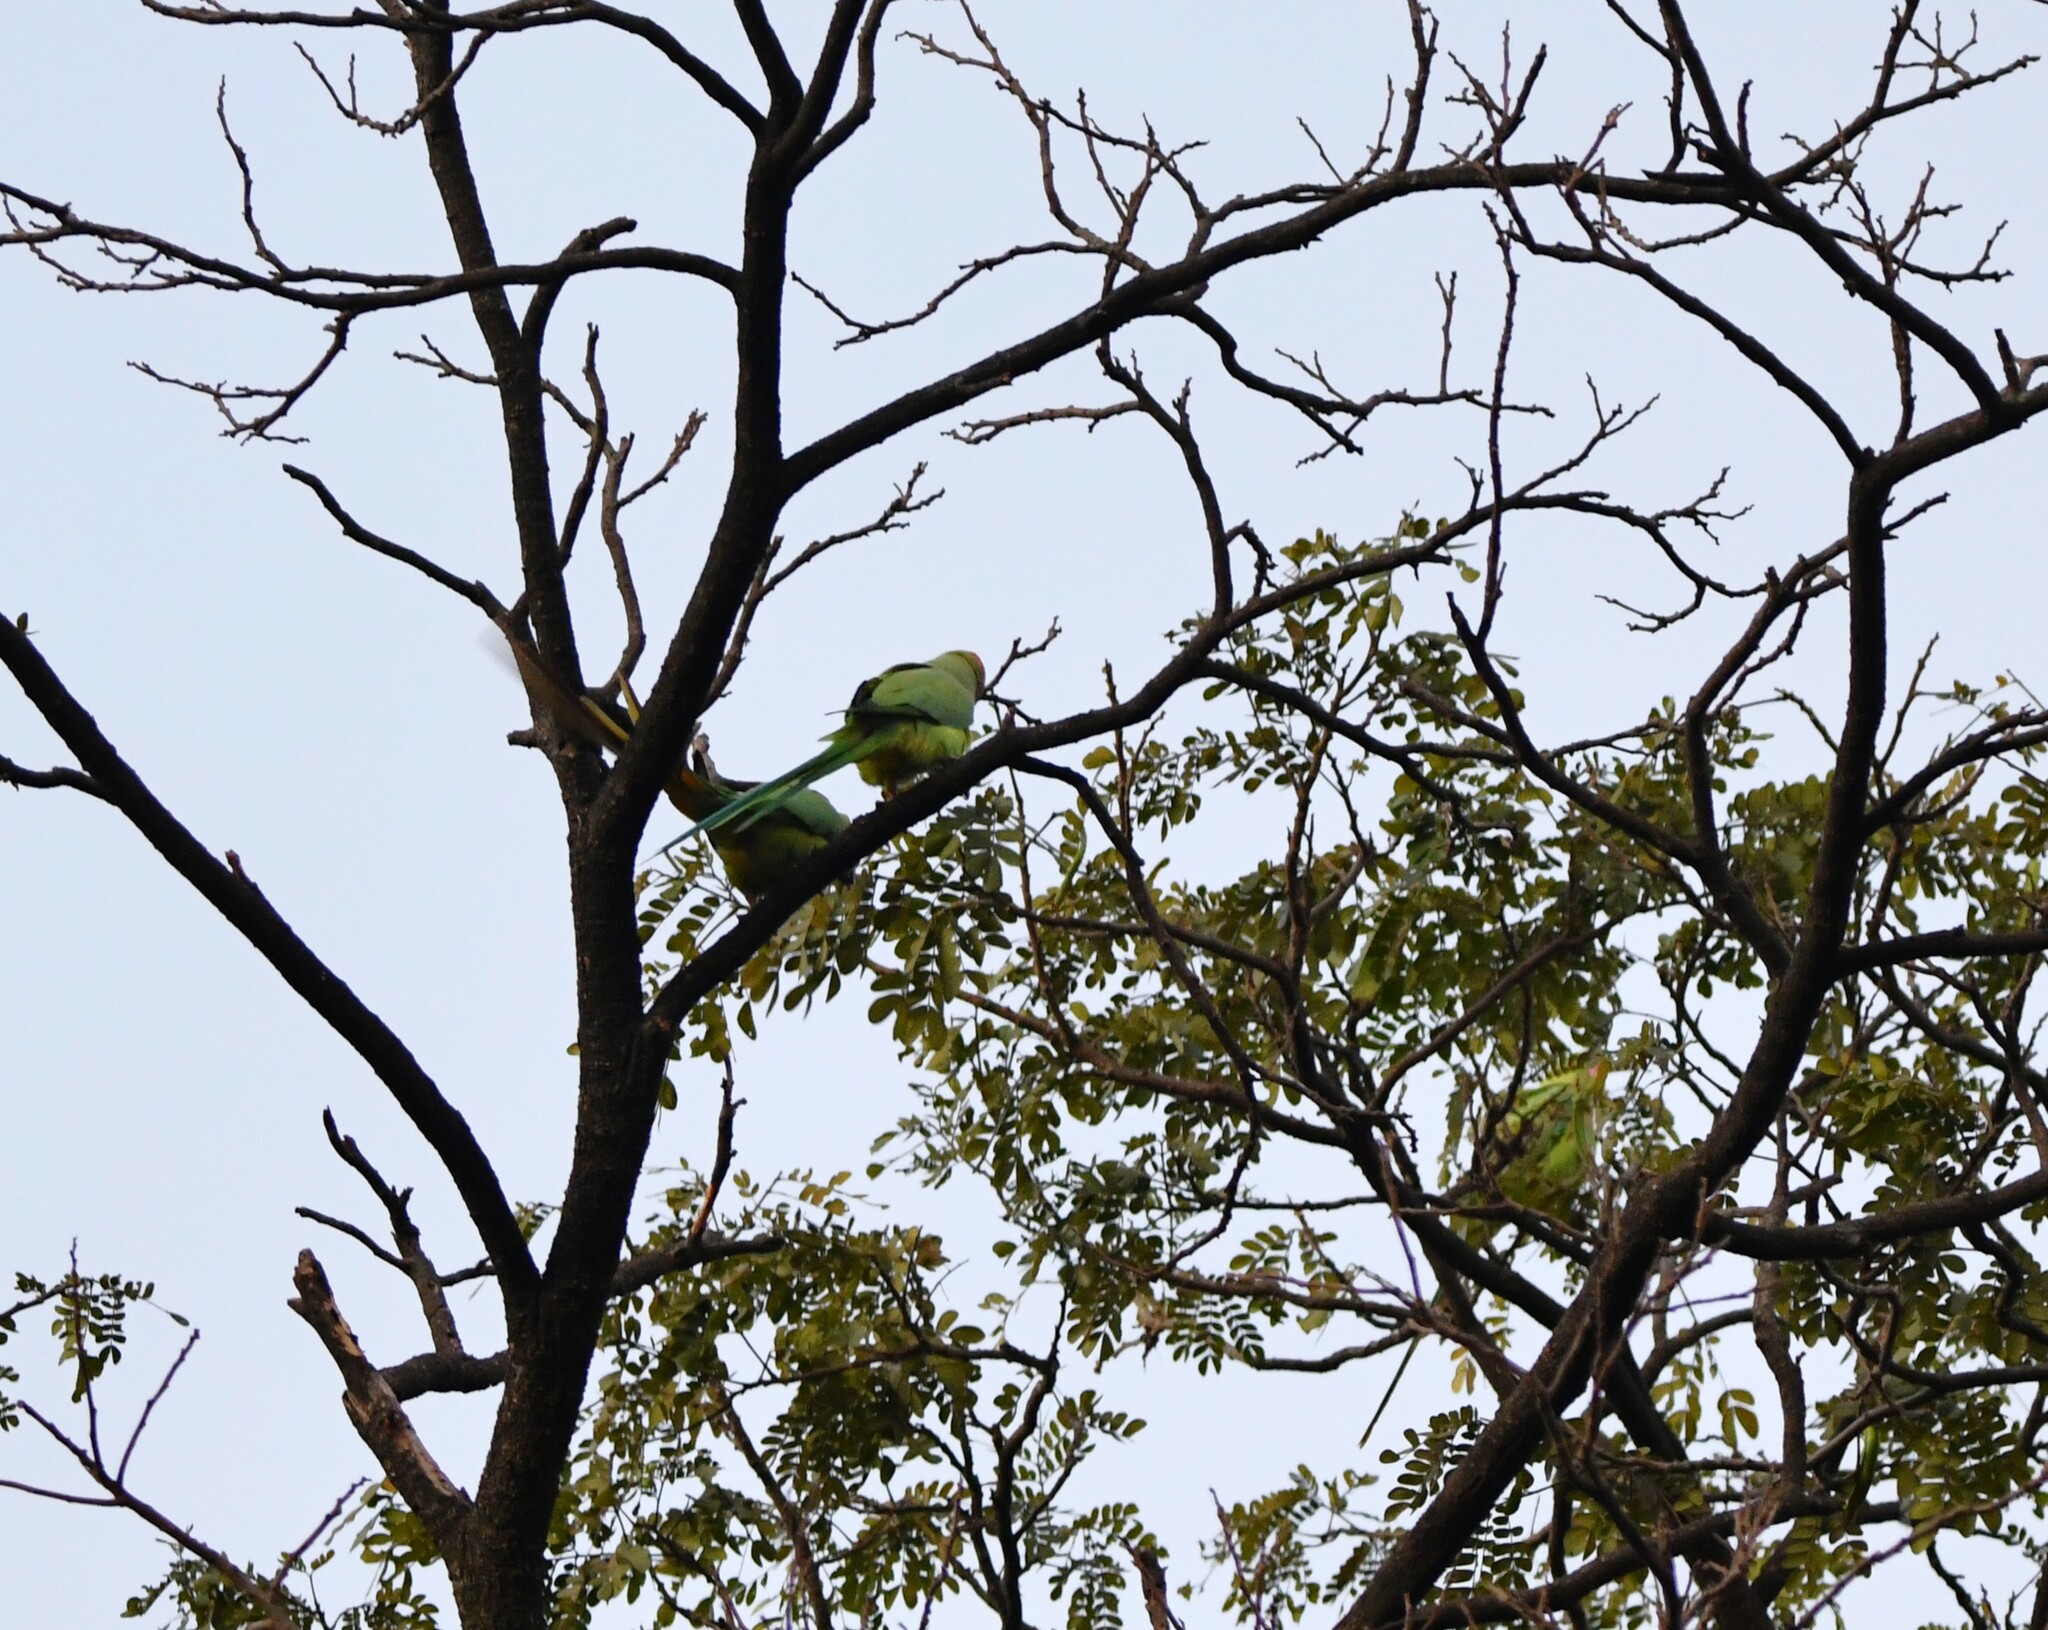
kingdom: Animalia
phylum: Chordata
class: Aves
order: Psittaciformes
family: Psittacidae
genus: Psittacula
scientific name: Psittacula cyanocephala
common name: Plum-headed parakeet
